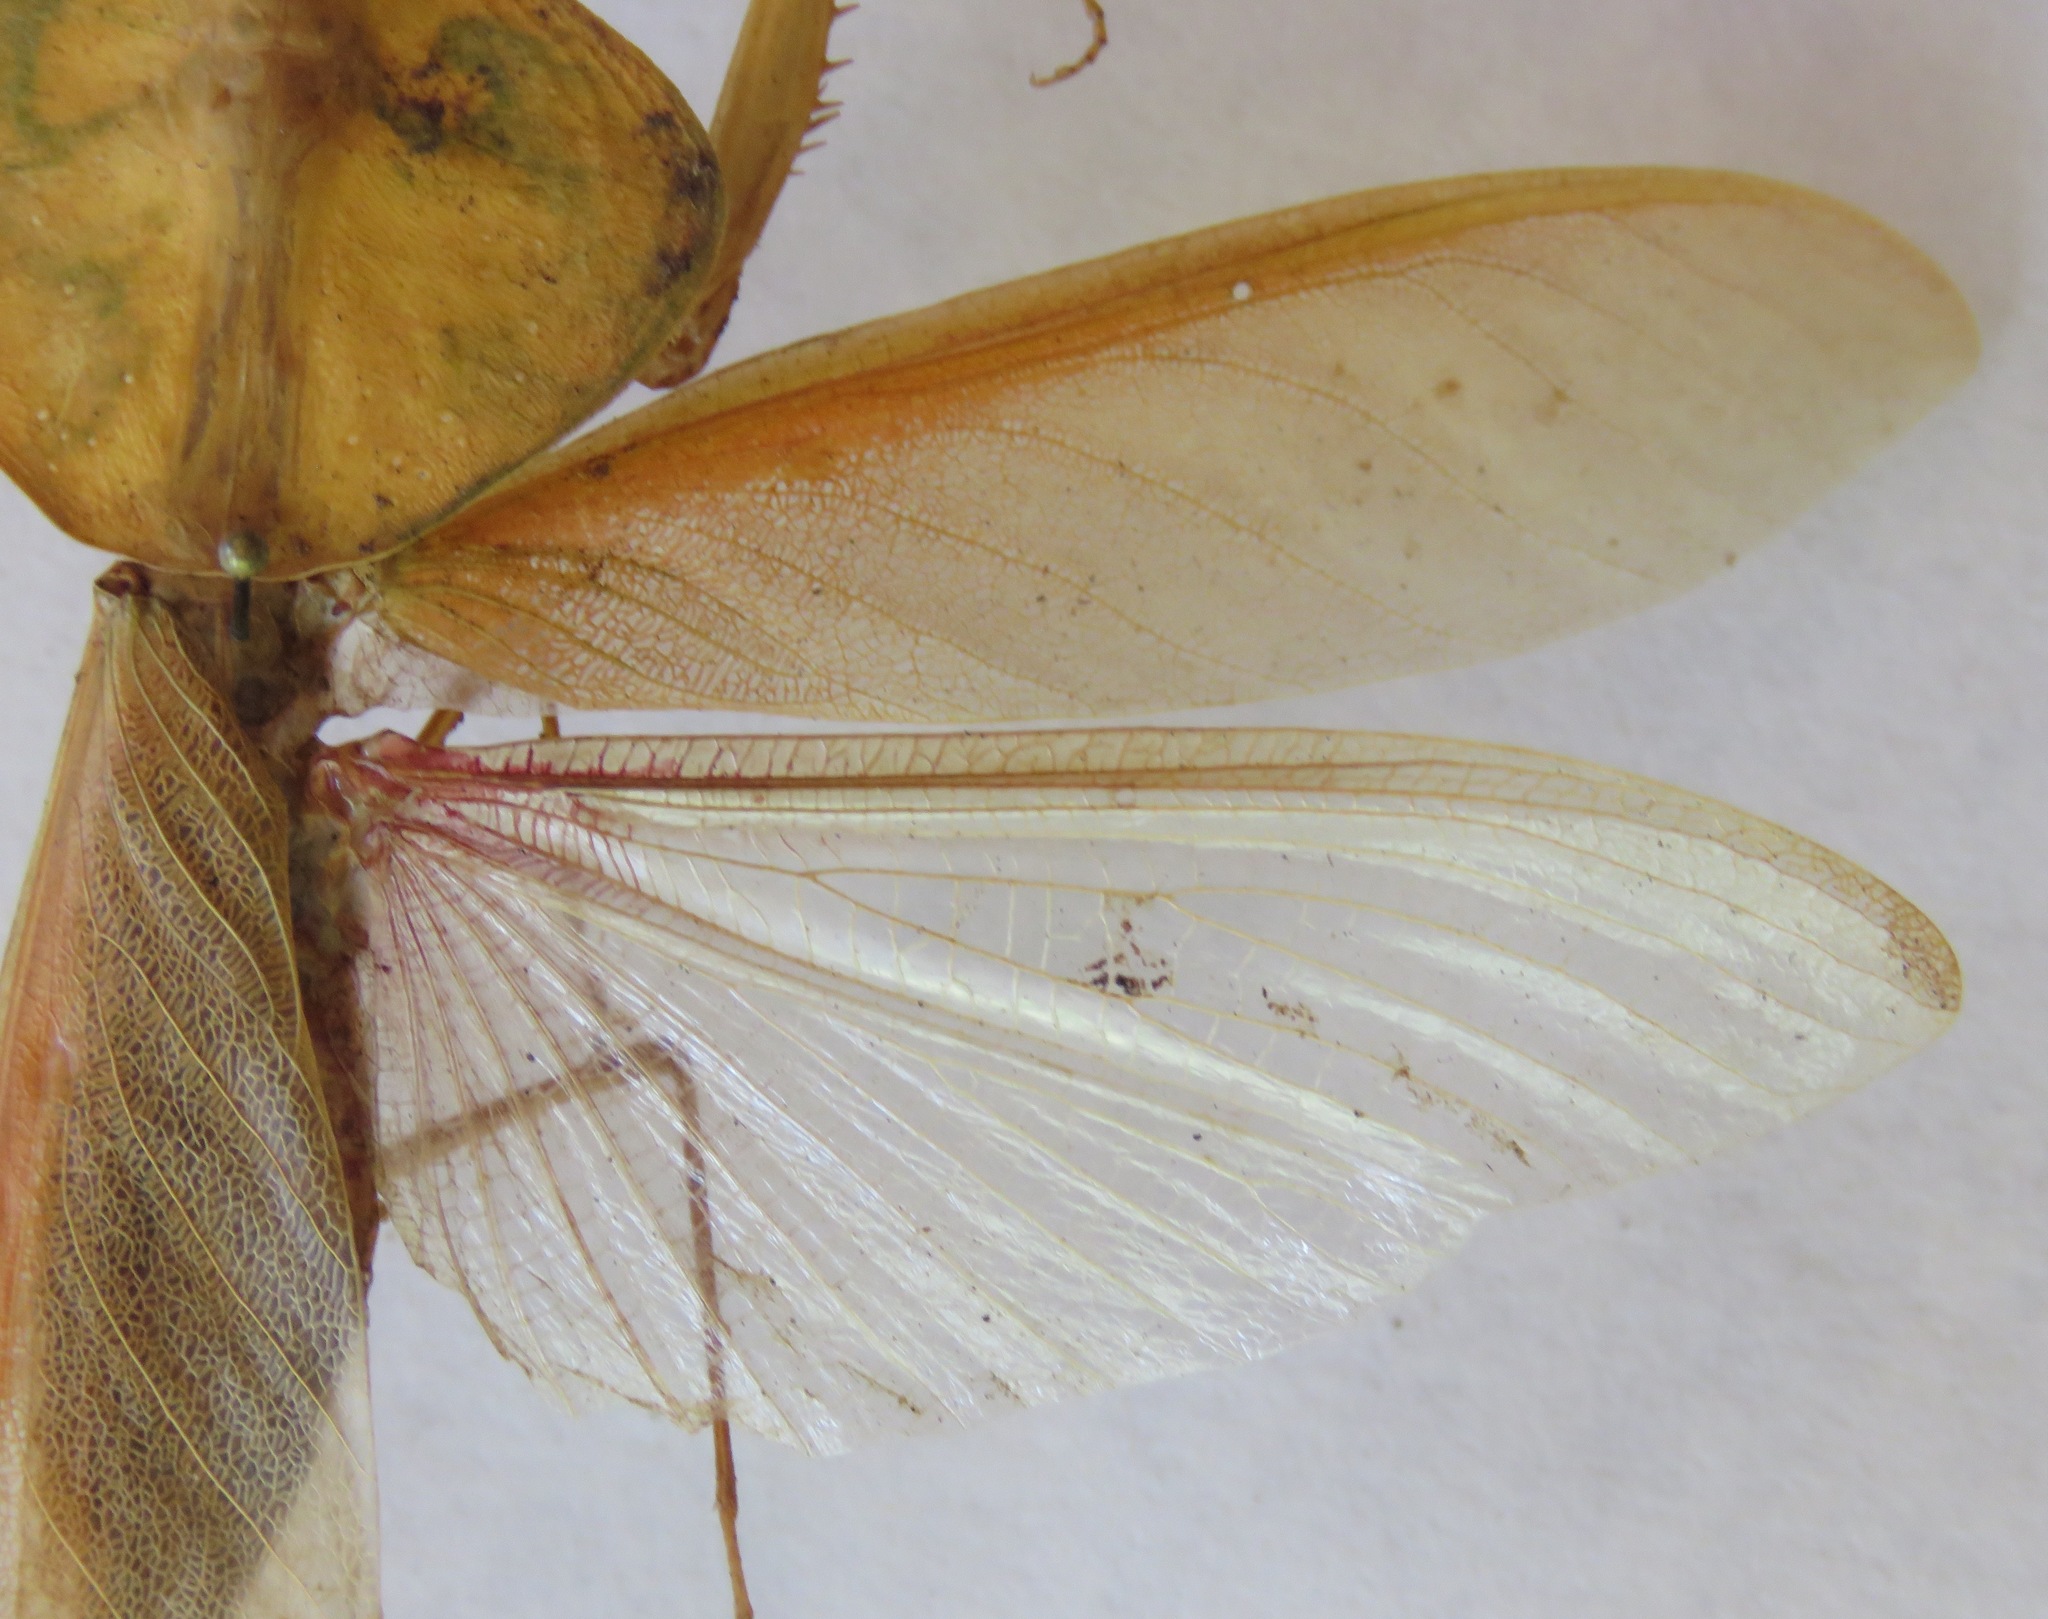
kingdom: Animalia
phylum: Arthropoda
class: Insecta
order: Mantodea
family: Mantidae
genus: Choeradodis
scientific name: Choeradodis rhombicollis
